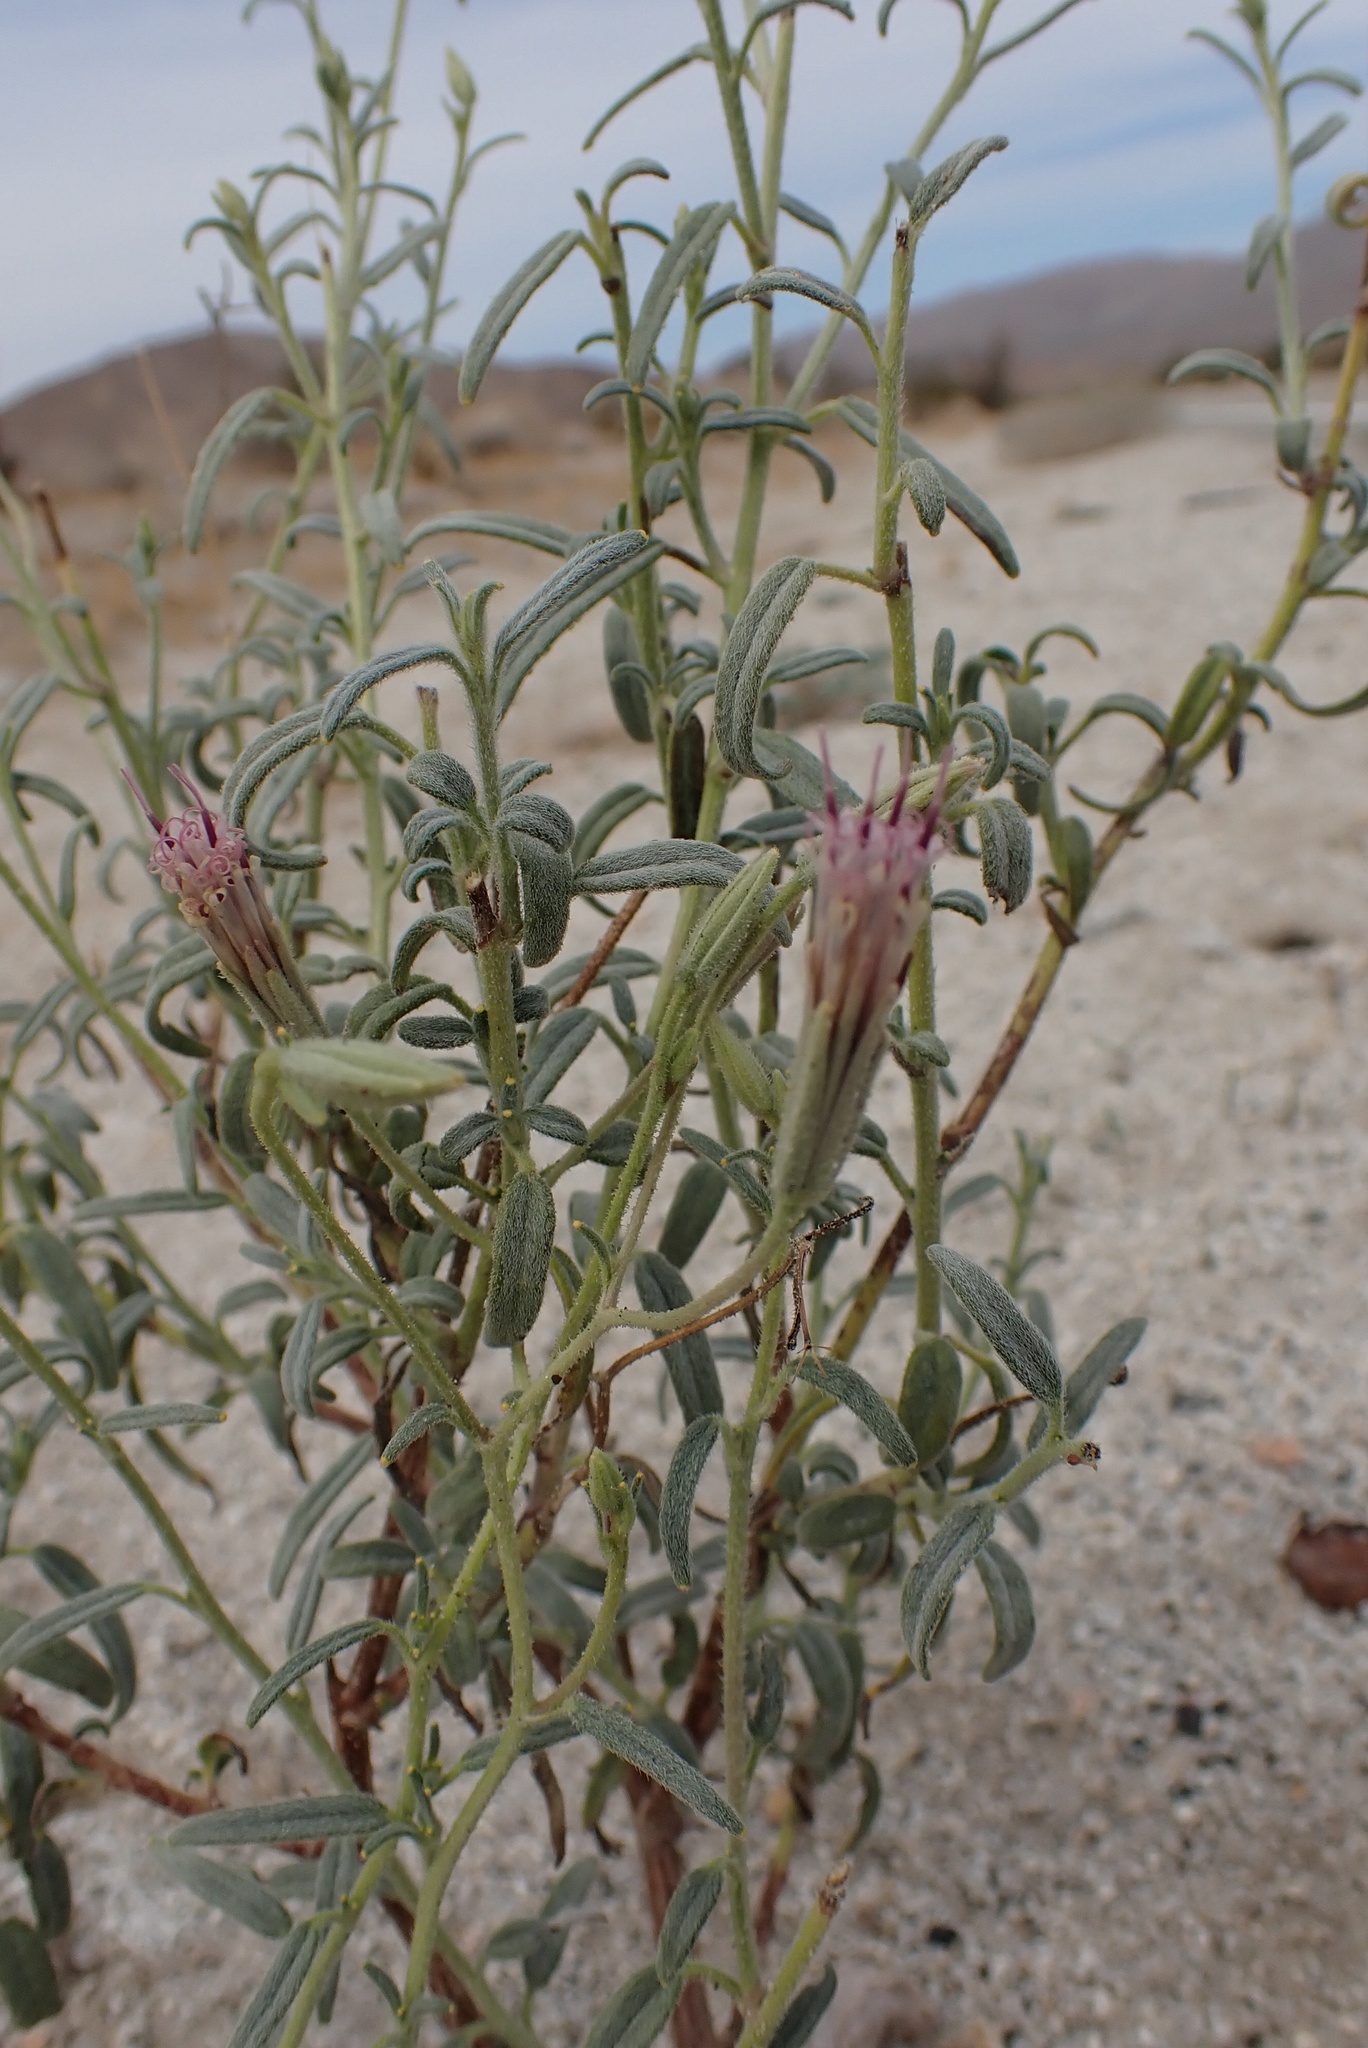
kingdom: Plantae
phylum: Tracheophyta
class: Magnoliopsida
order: Asterales
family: Asteraceae
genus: Palafoxia
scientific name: Palafoxia arida
